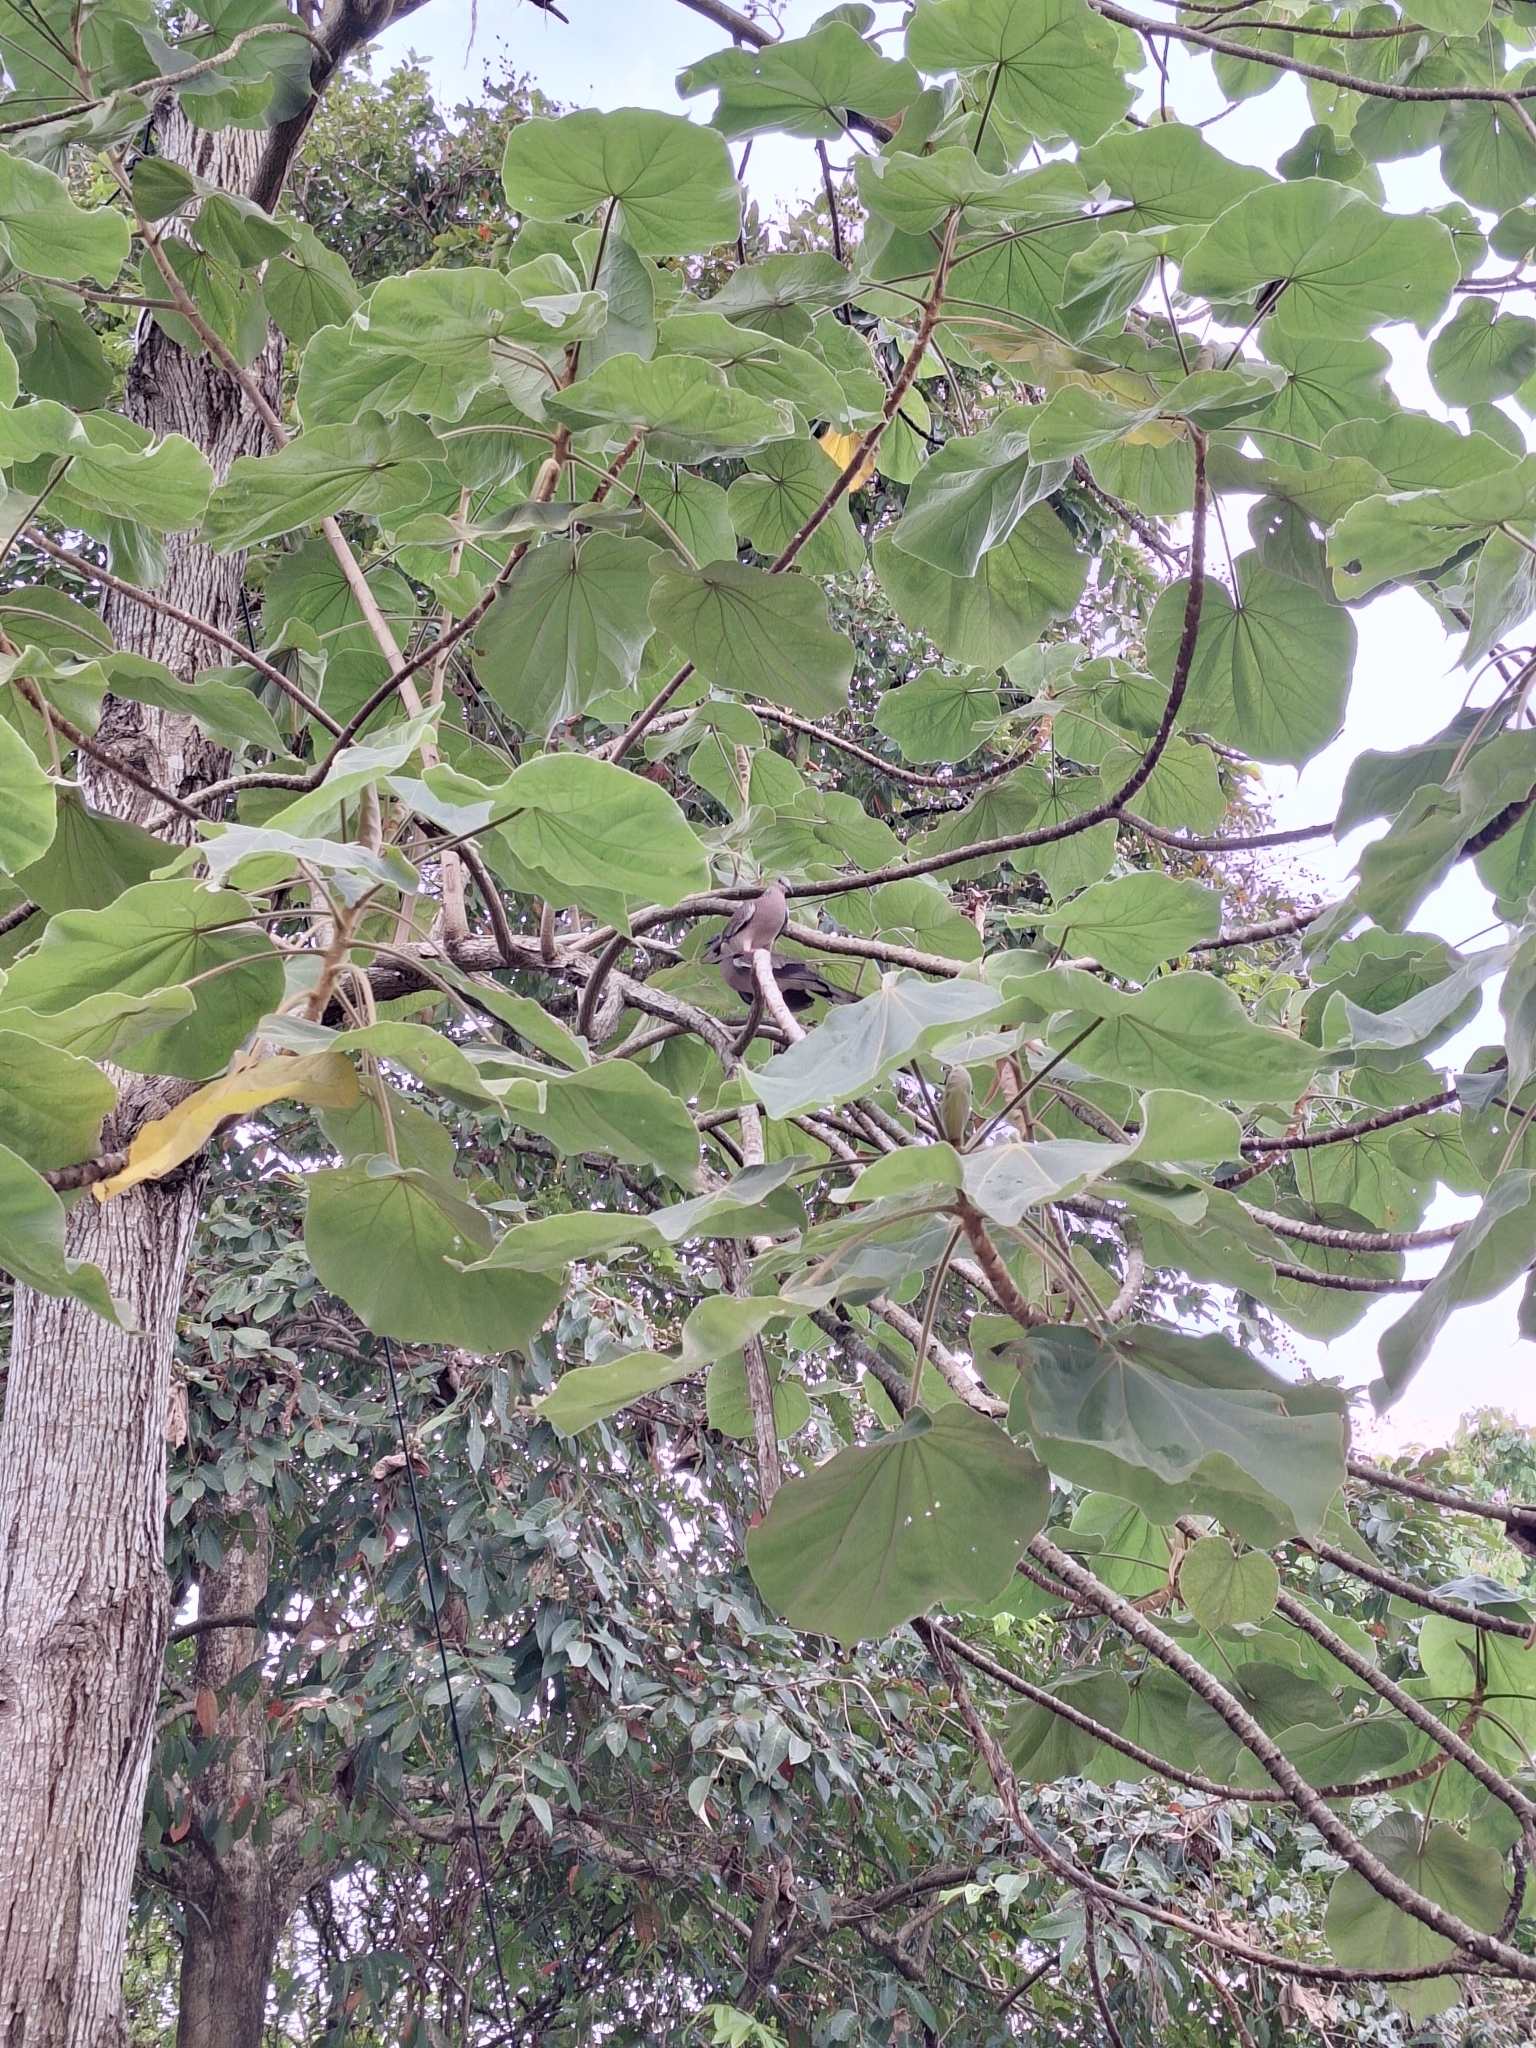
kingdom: Animalia
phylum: Chordata
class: Aves
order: Columbiformes
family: Columbidae
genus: Spilopelia
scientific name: Spilopelia chinensis
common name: Spotted dove
